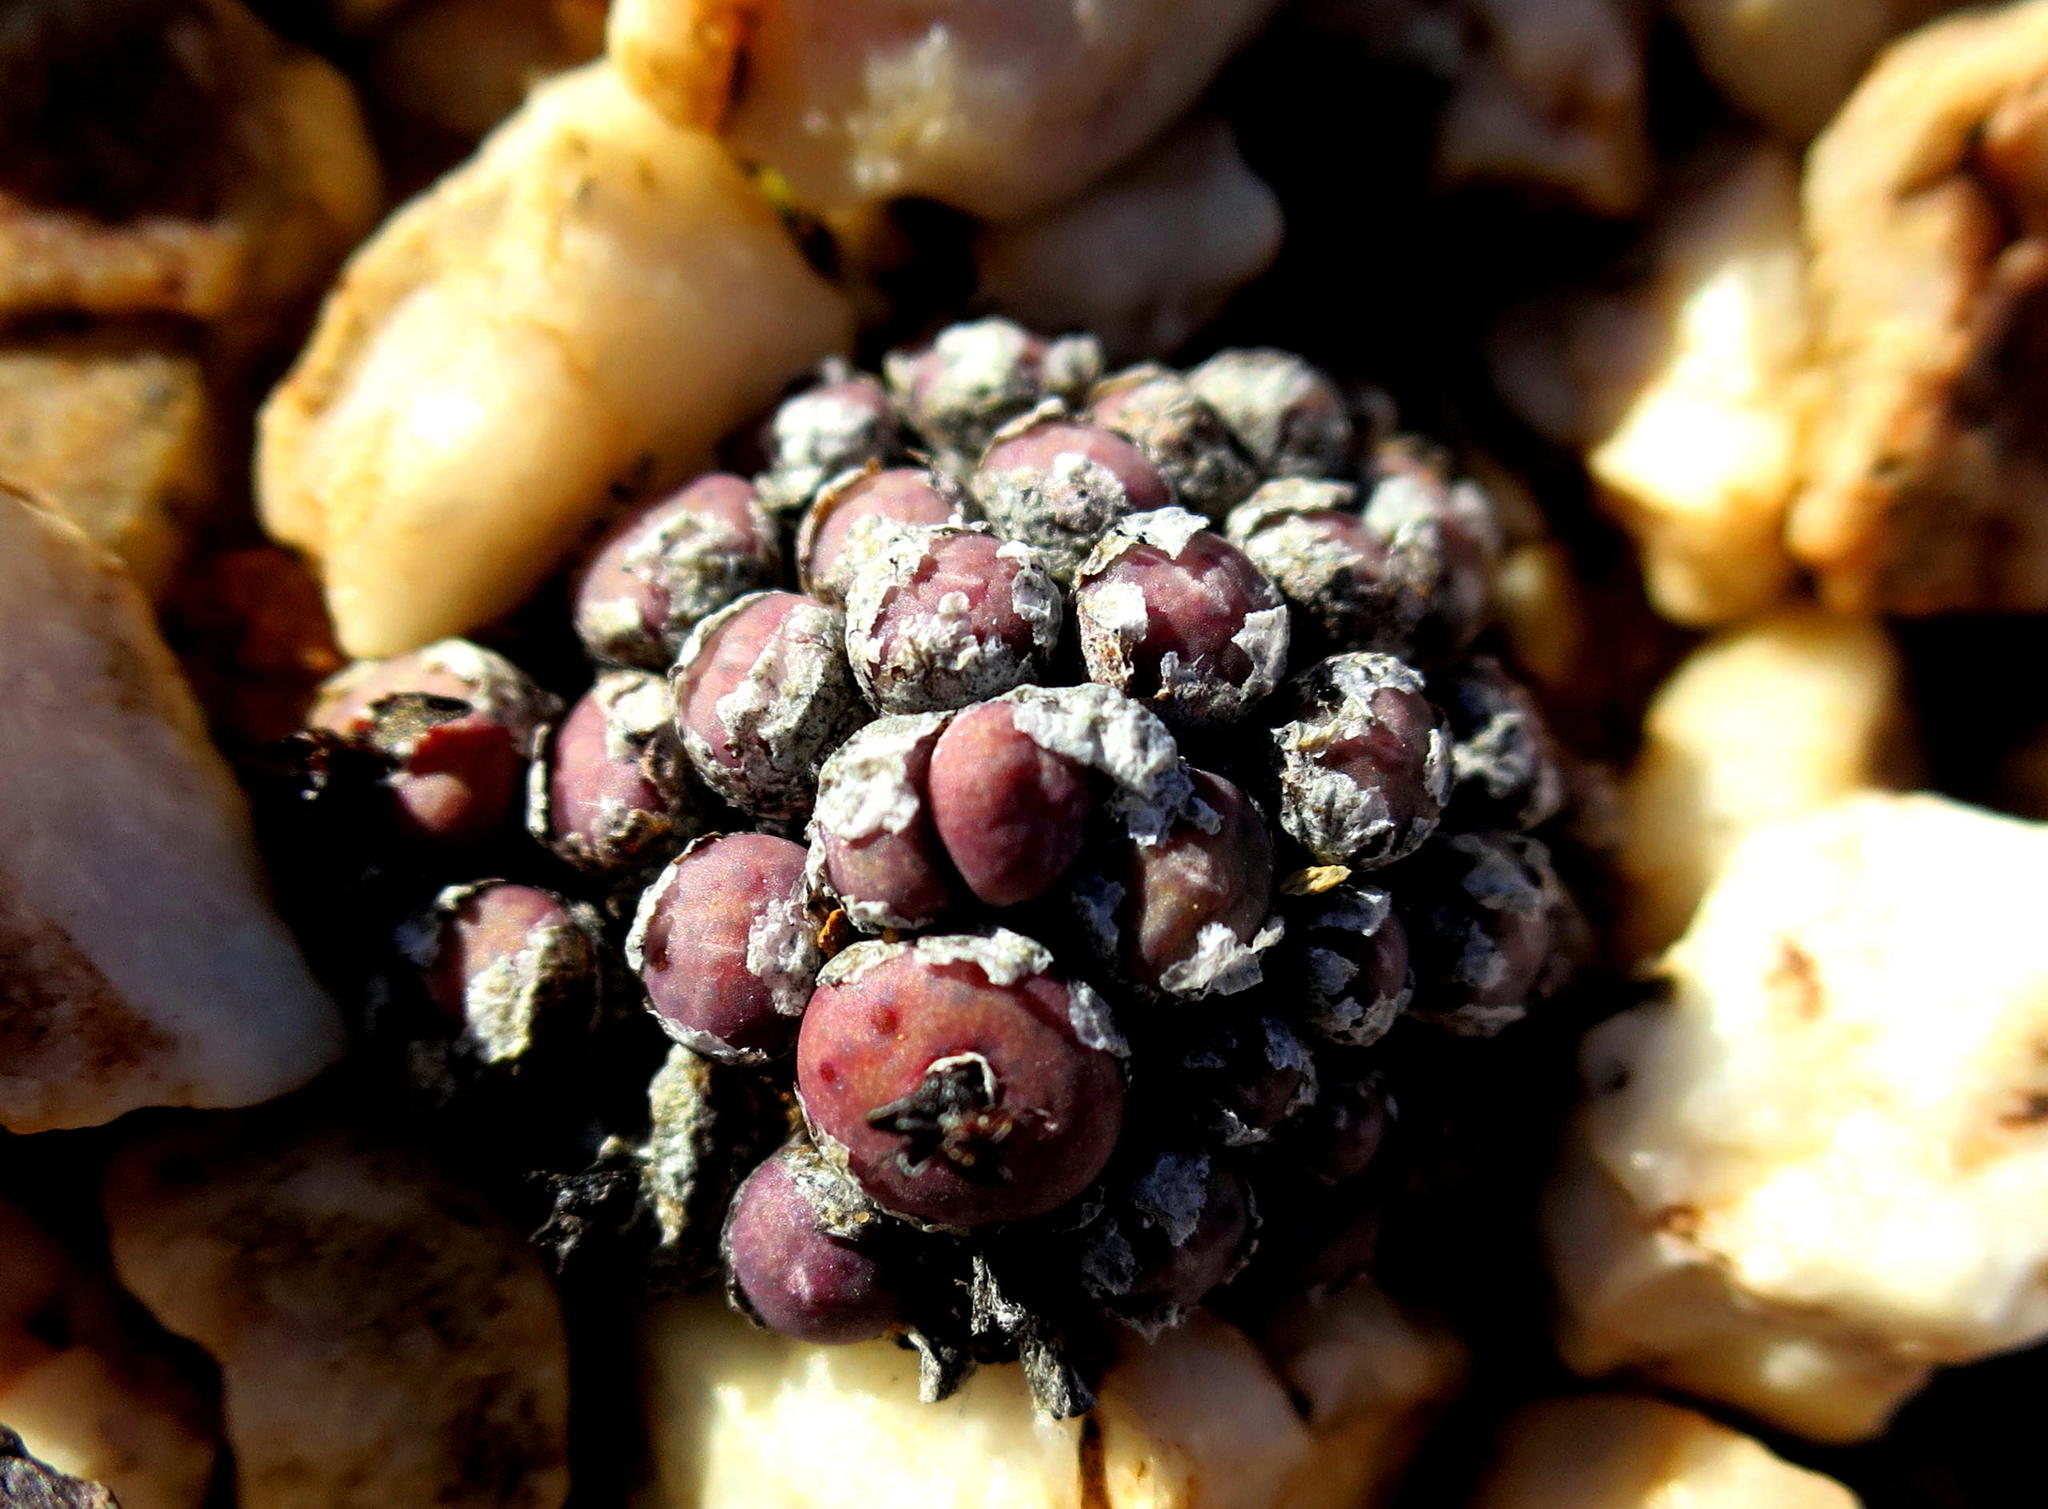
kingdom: Plantae
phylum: Tracheophyta
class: Magnoliopsida
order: Caryophyllales
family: Aizoaceae
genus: Conophytum
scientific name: Conophytum piluliforme
